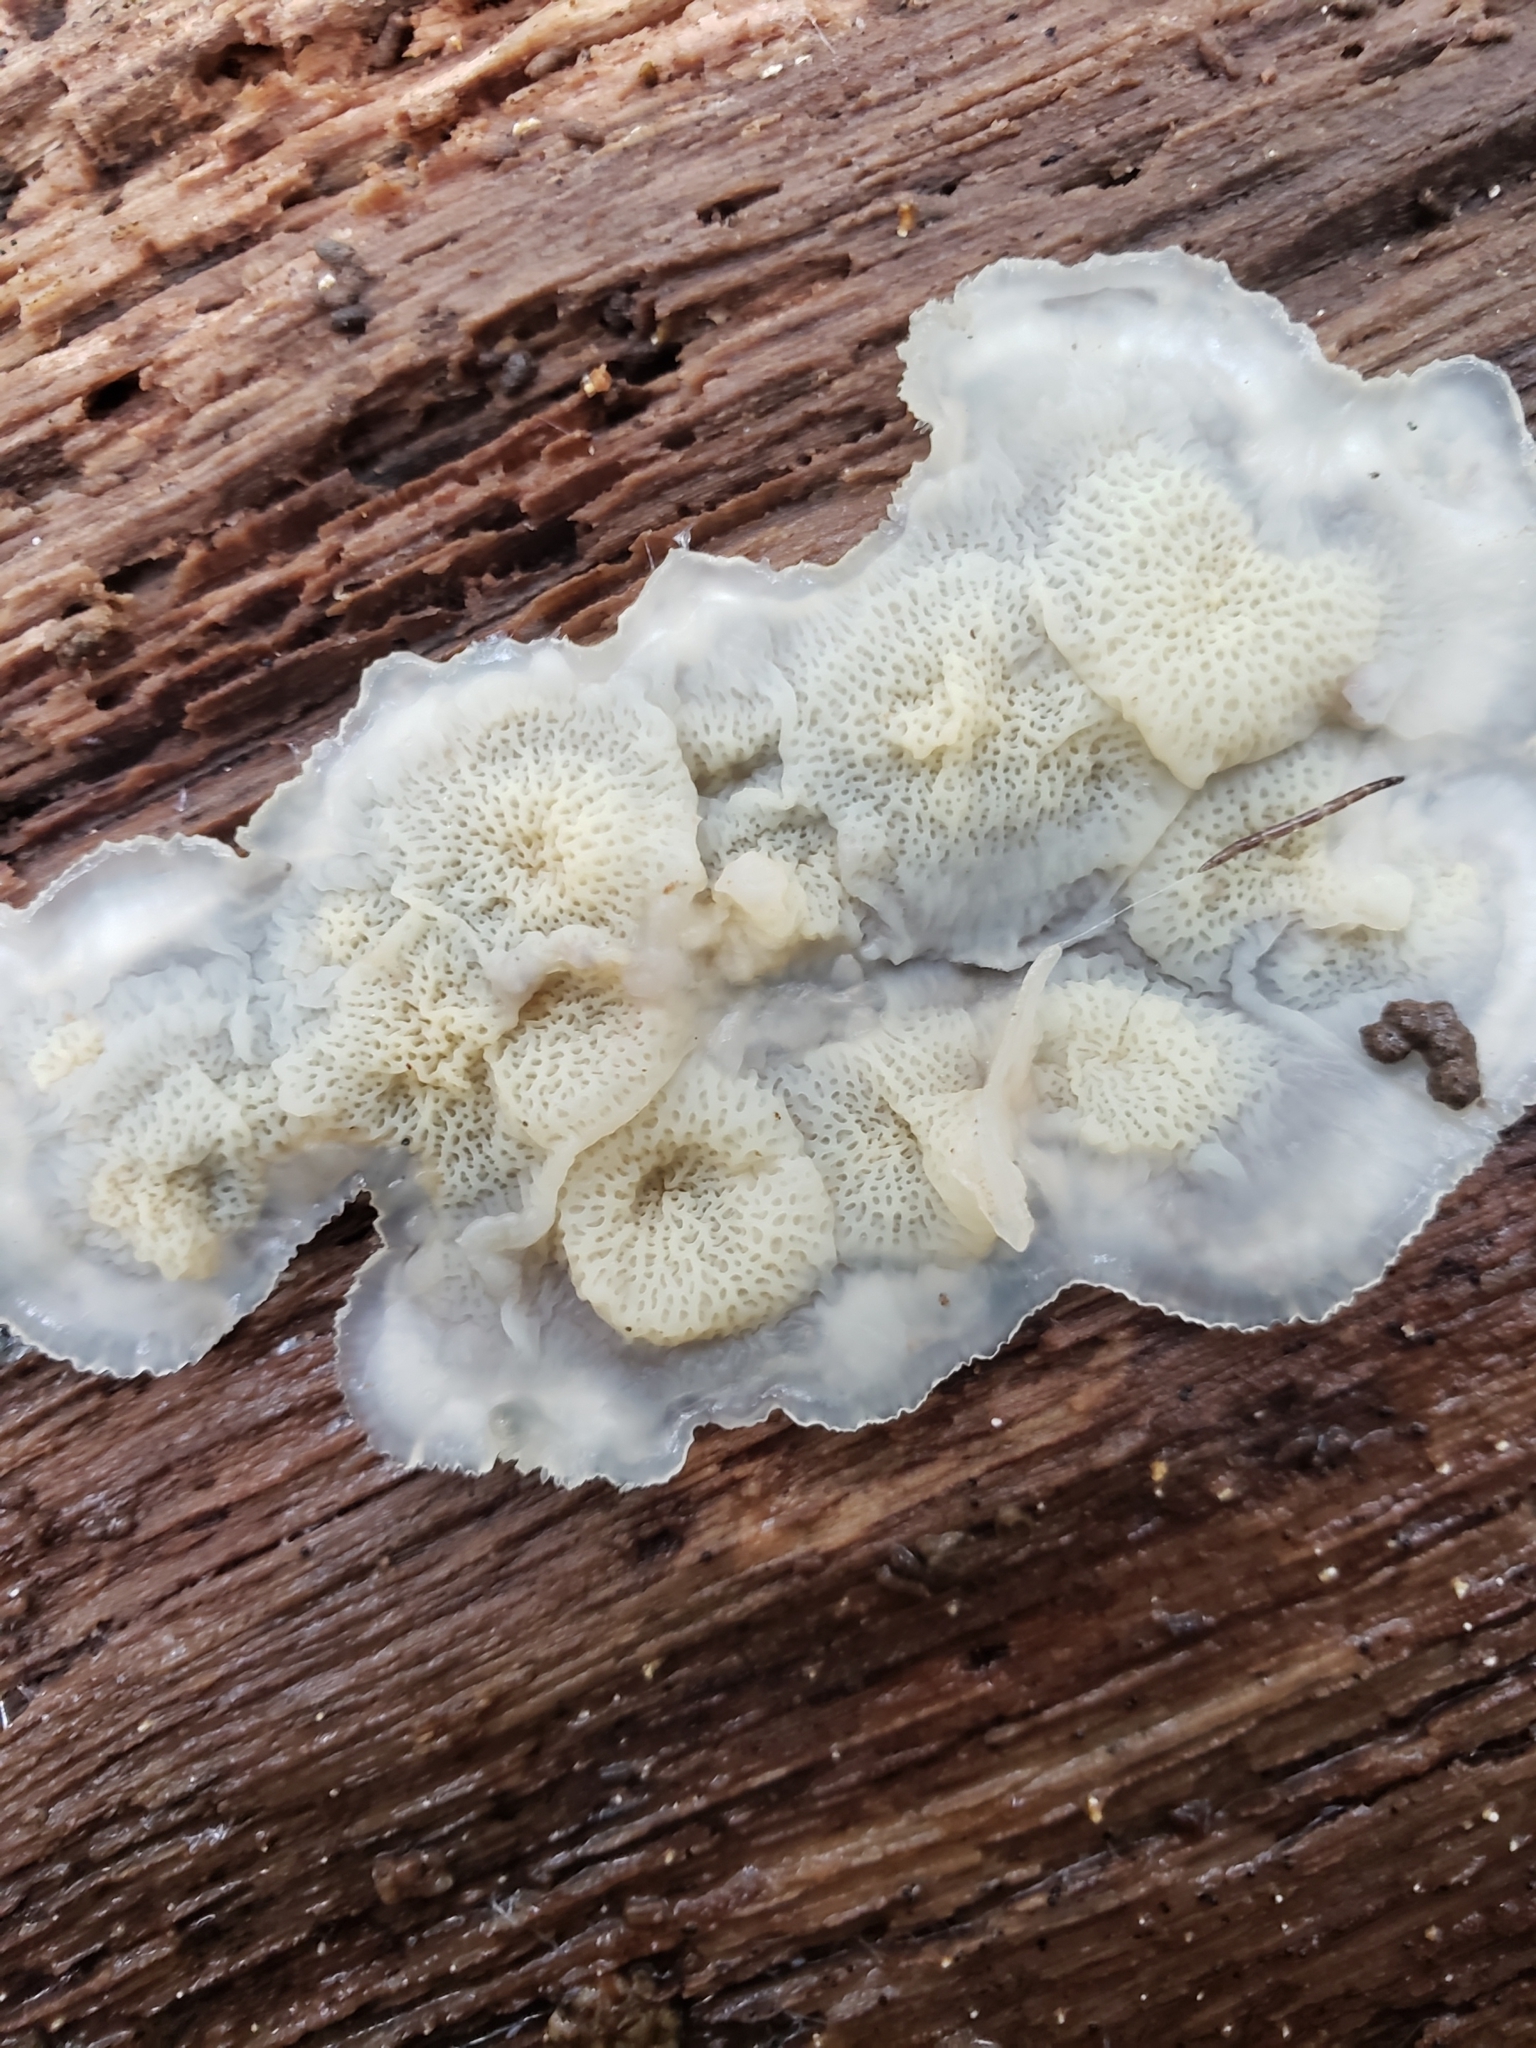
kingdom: Fungi
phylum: Basidiomycota
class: Agaricomycetes
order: Polyporales
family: Meruliaceae
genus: Phlebia
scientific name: Phlebia tremellosa
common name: Jelly rot
